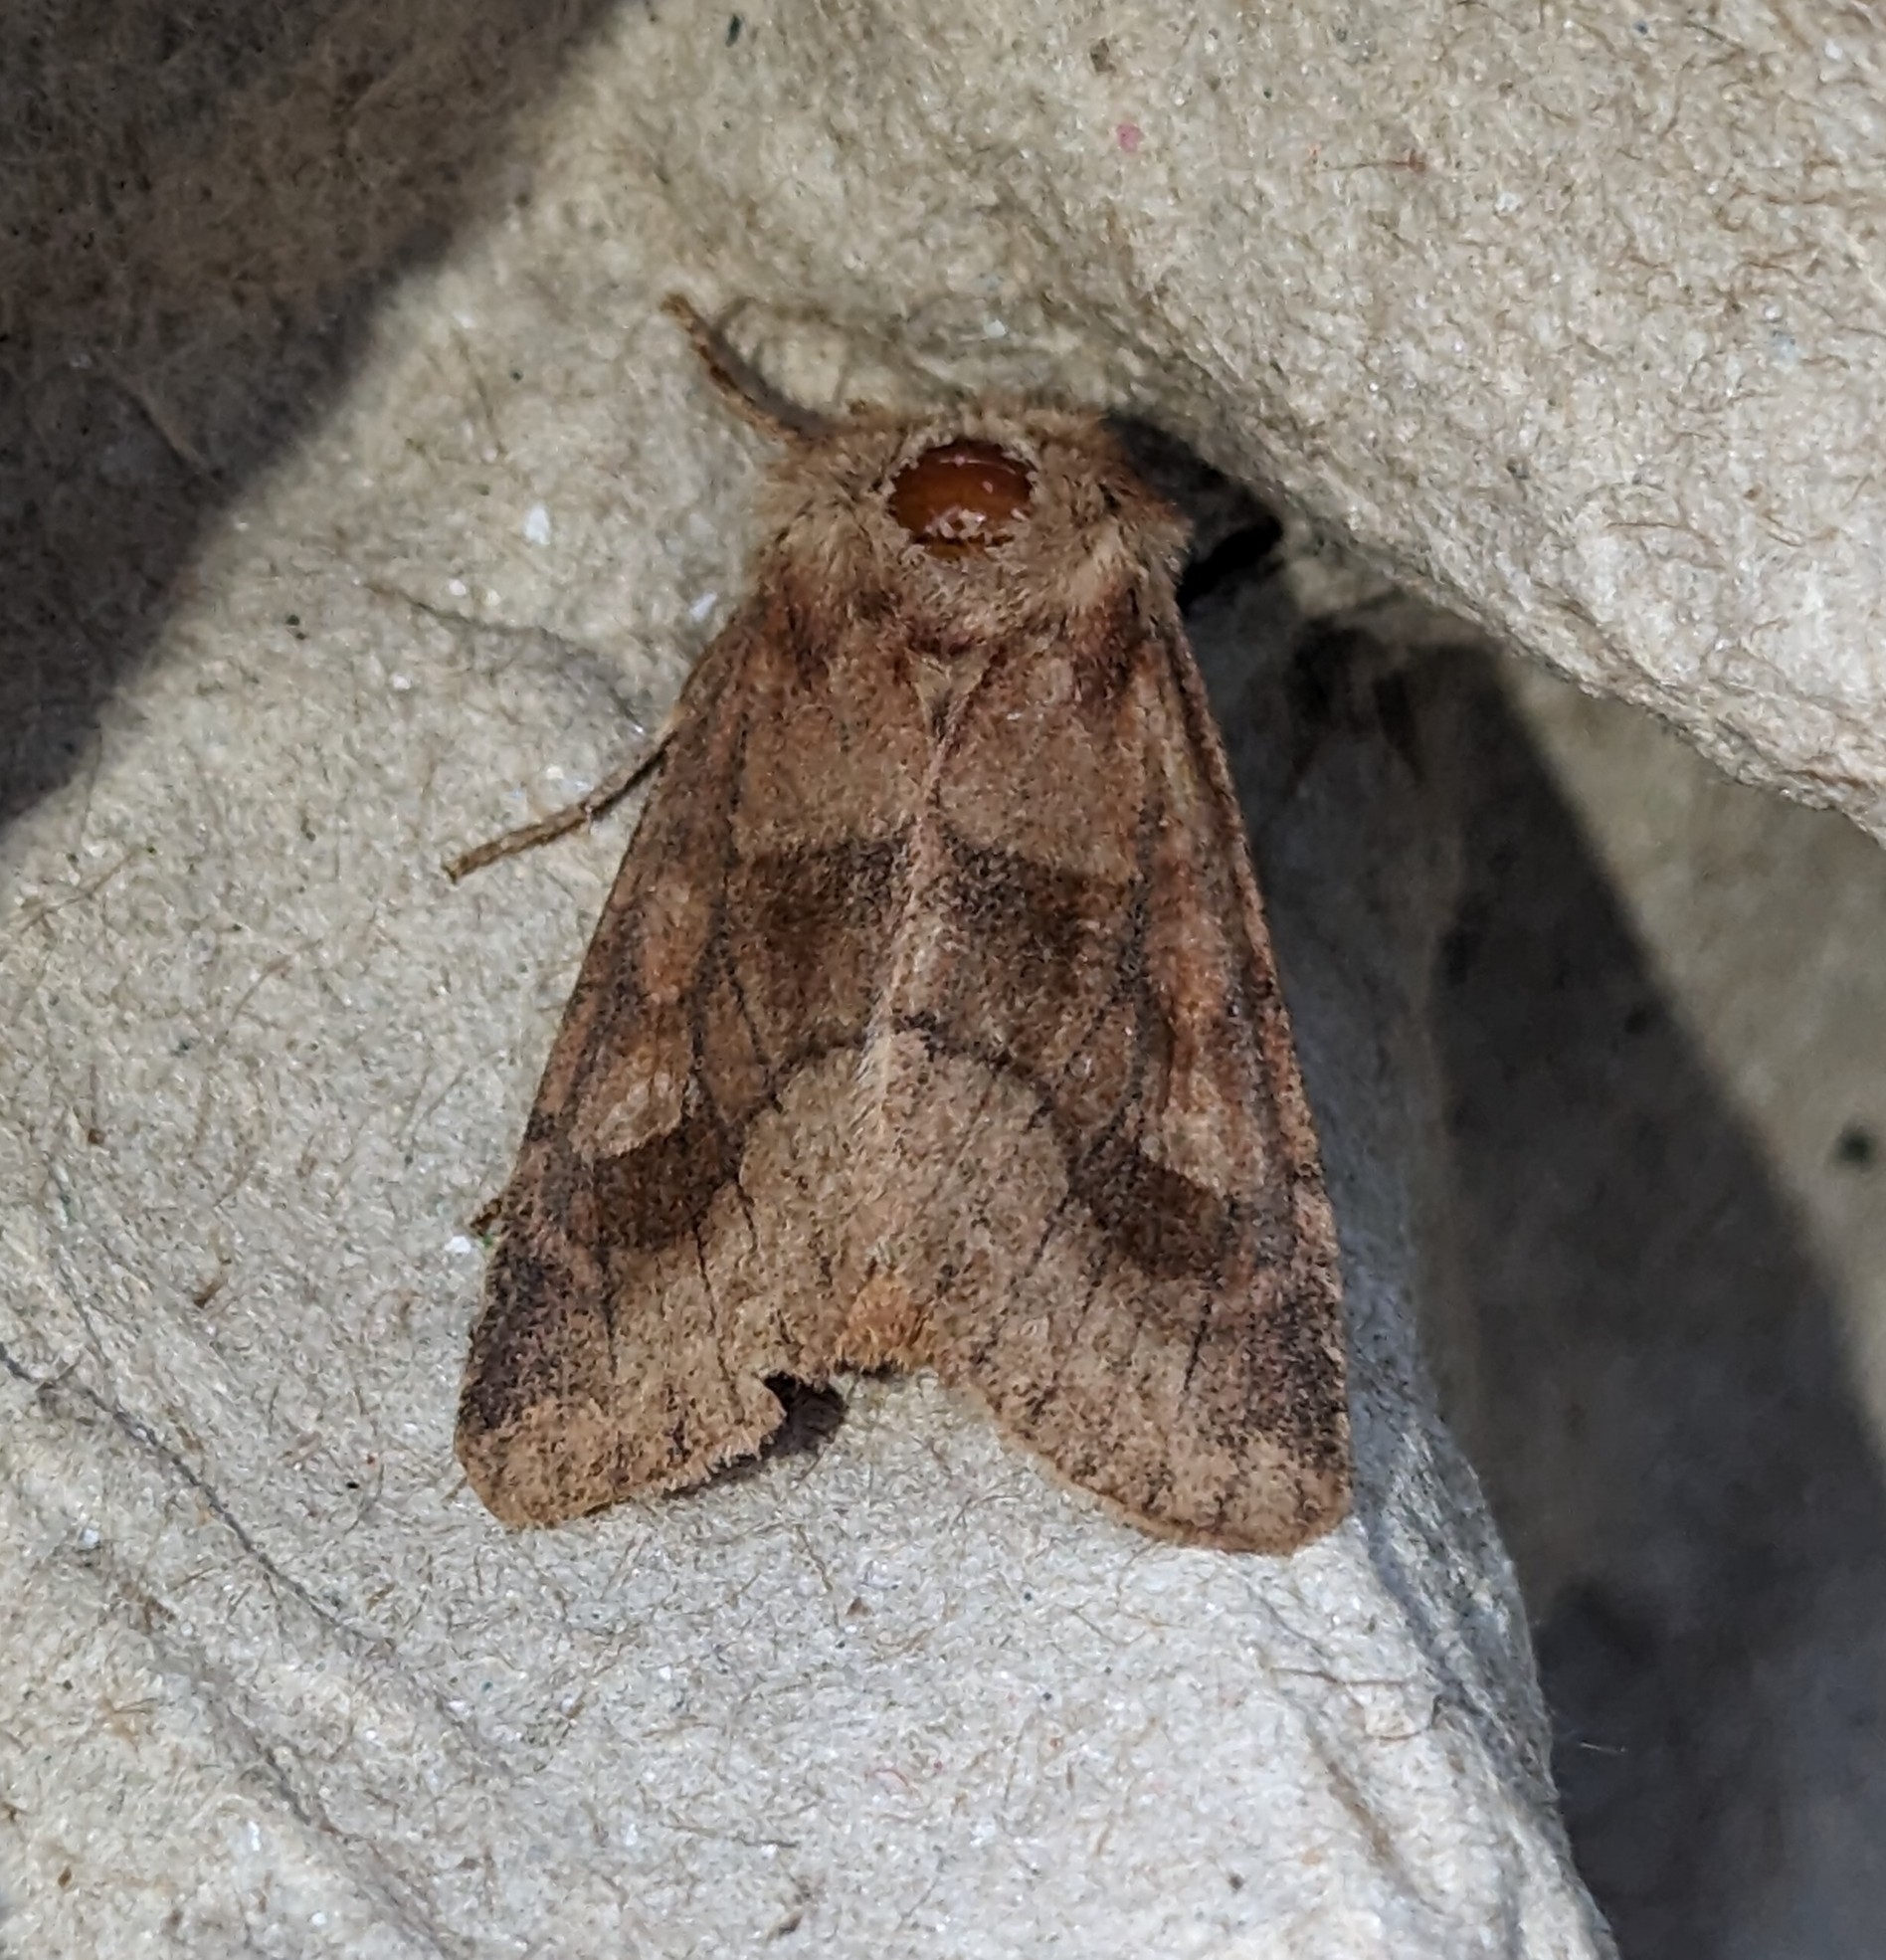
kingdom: Animalia
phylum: Arthropoda
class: Insecta
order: Lepidoptera
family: Noctuidae
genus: Nephelodes
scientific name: Nephelodes minians
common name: Bronzed cutworm
